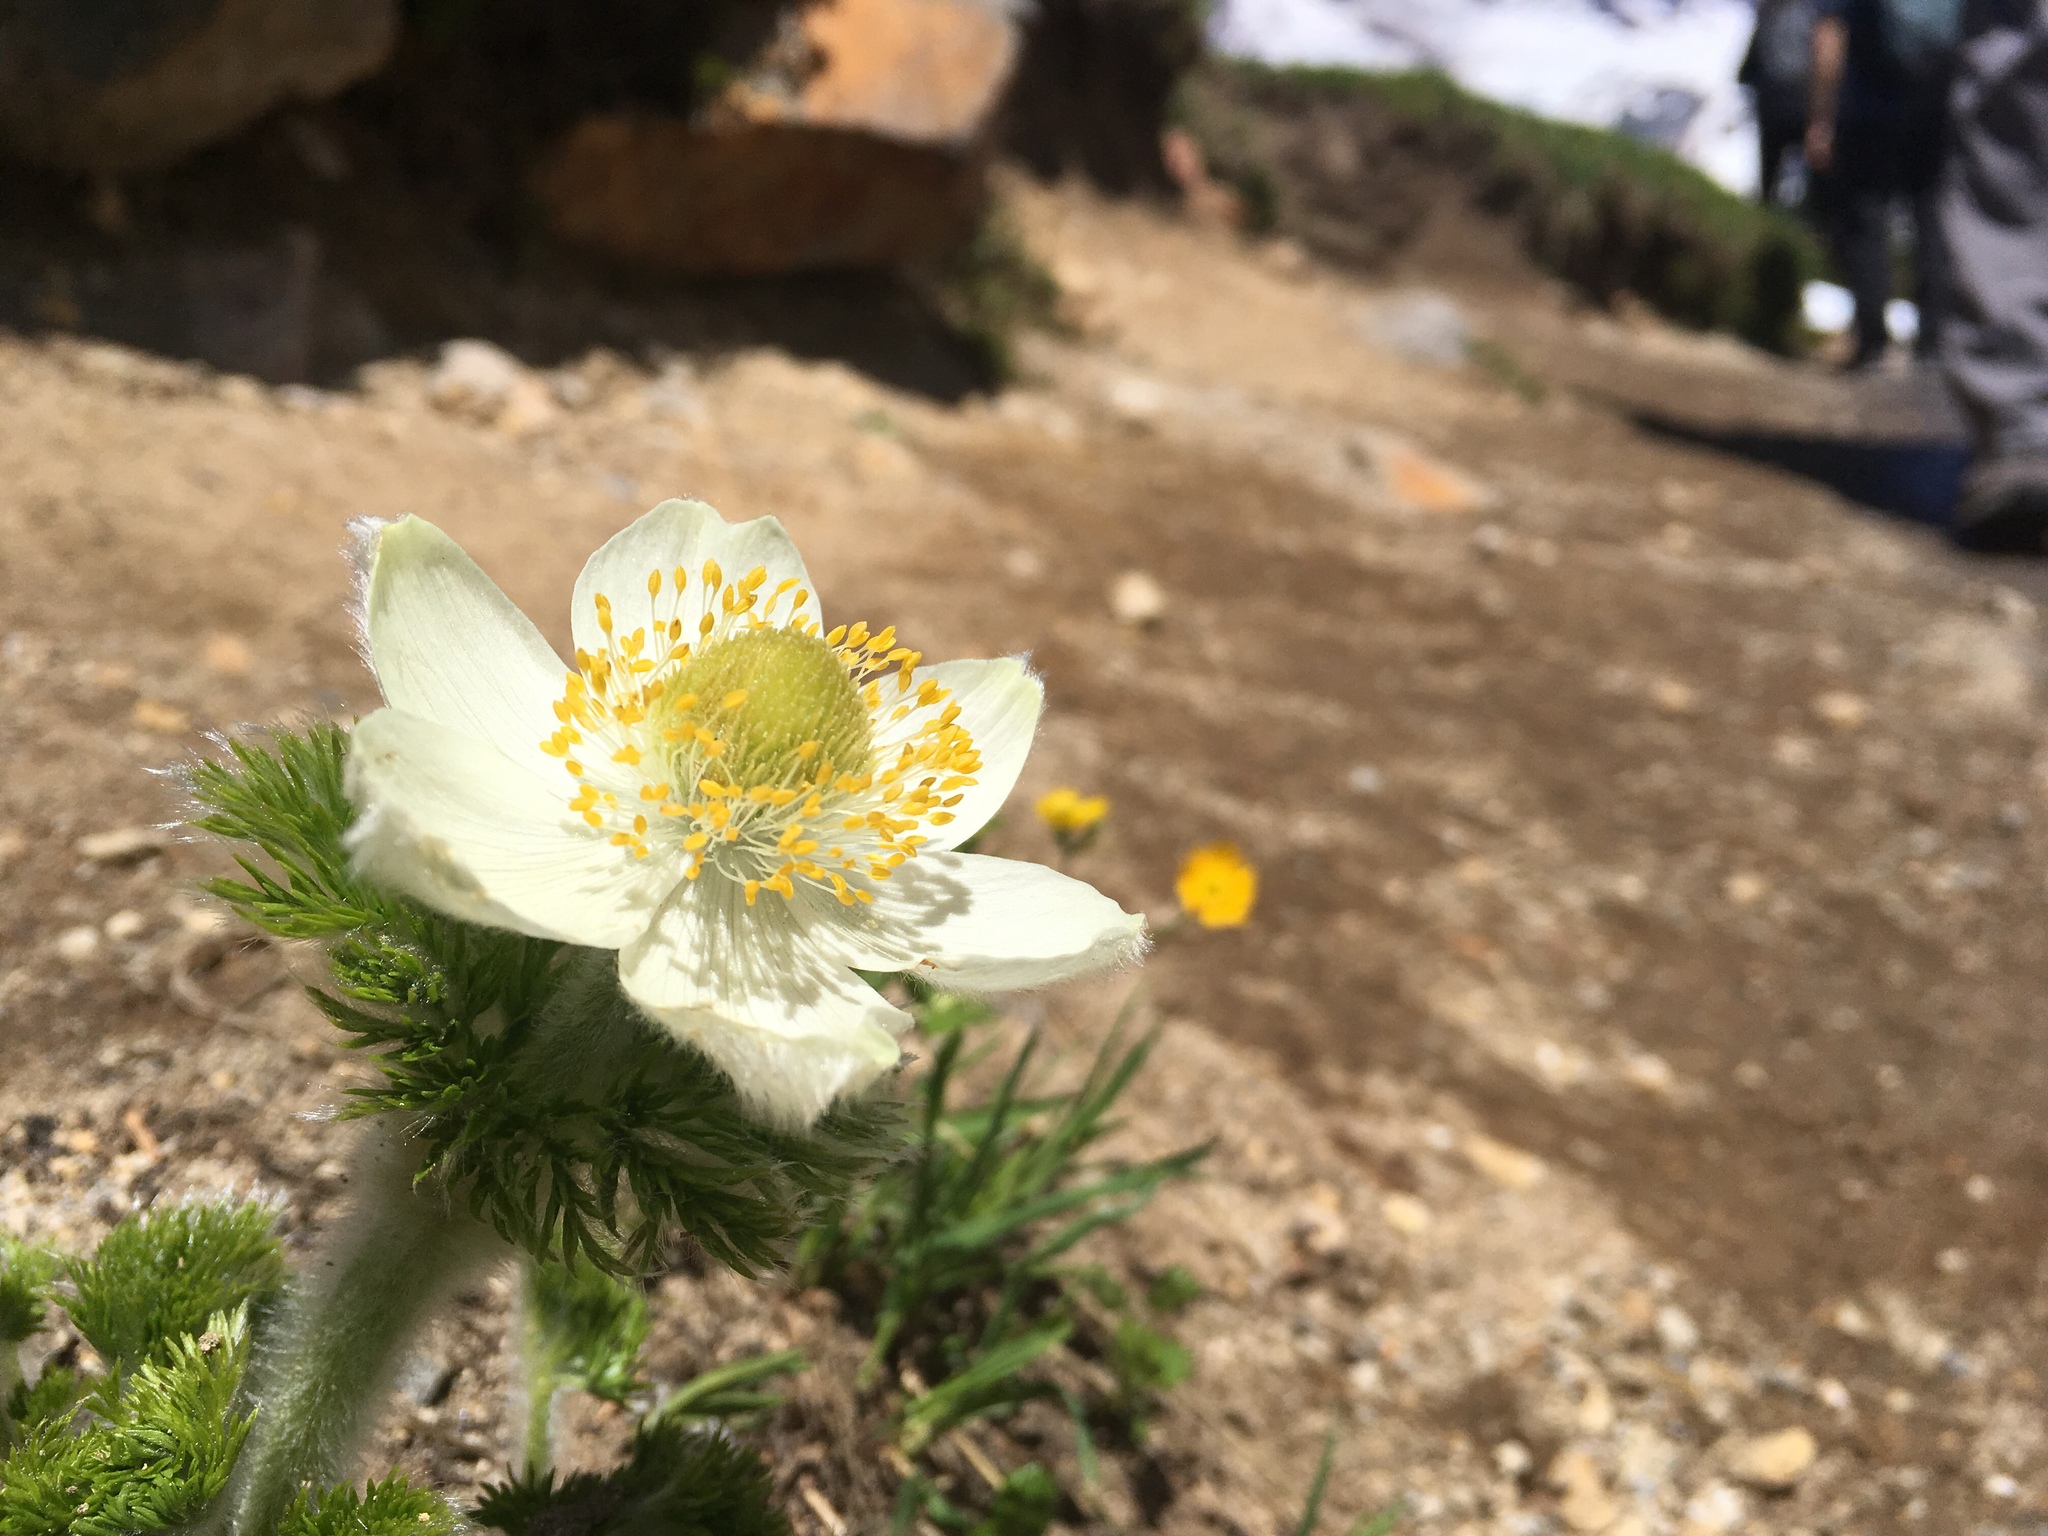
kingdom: Plantae
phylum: Tracheophyta
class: Magnoliopsida
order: Ranunculales
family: Ranunculaceae
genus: Pulsatilla
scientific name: Pulsatilla occidentalis
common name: Mountain pasqueflower
